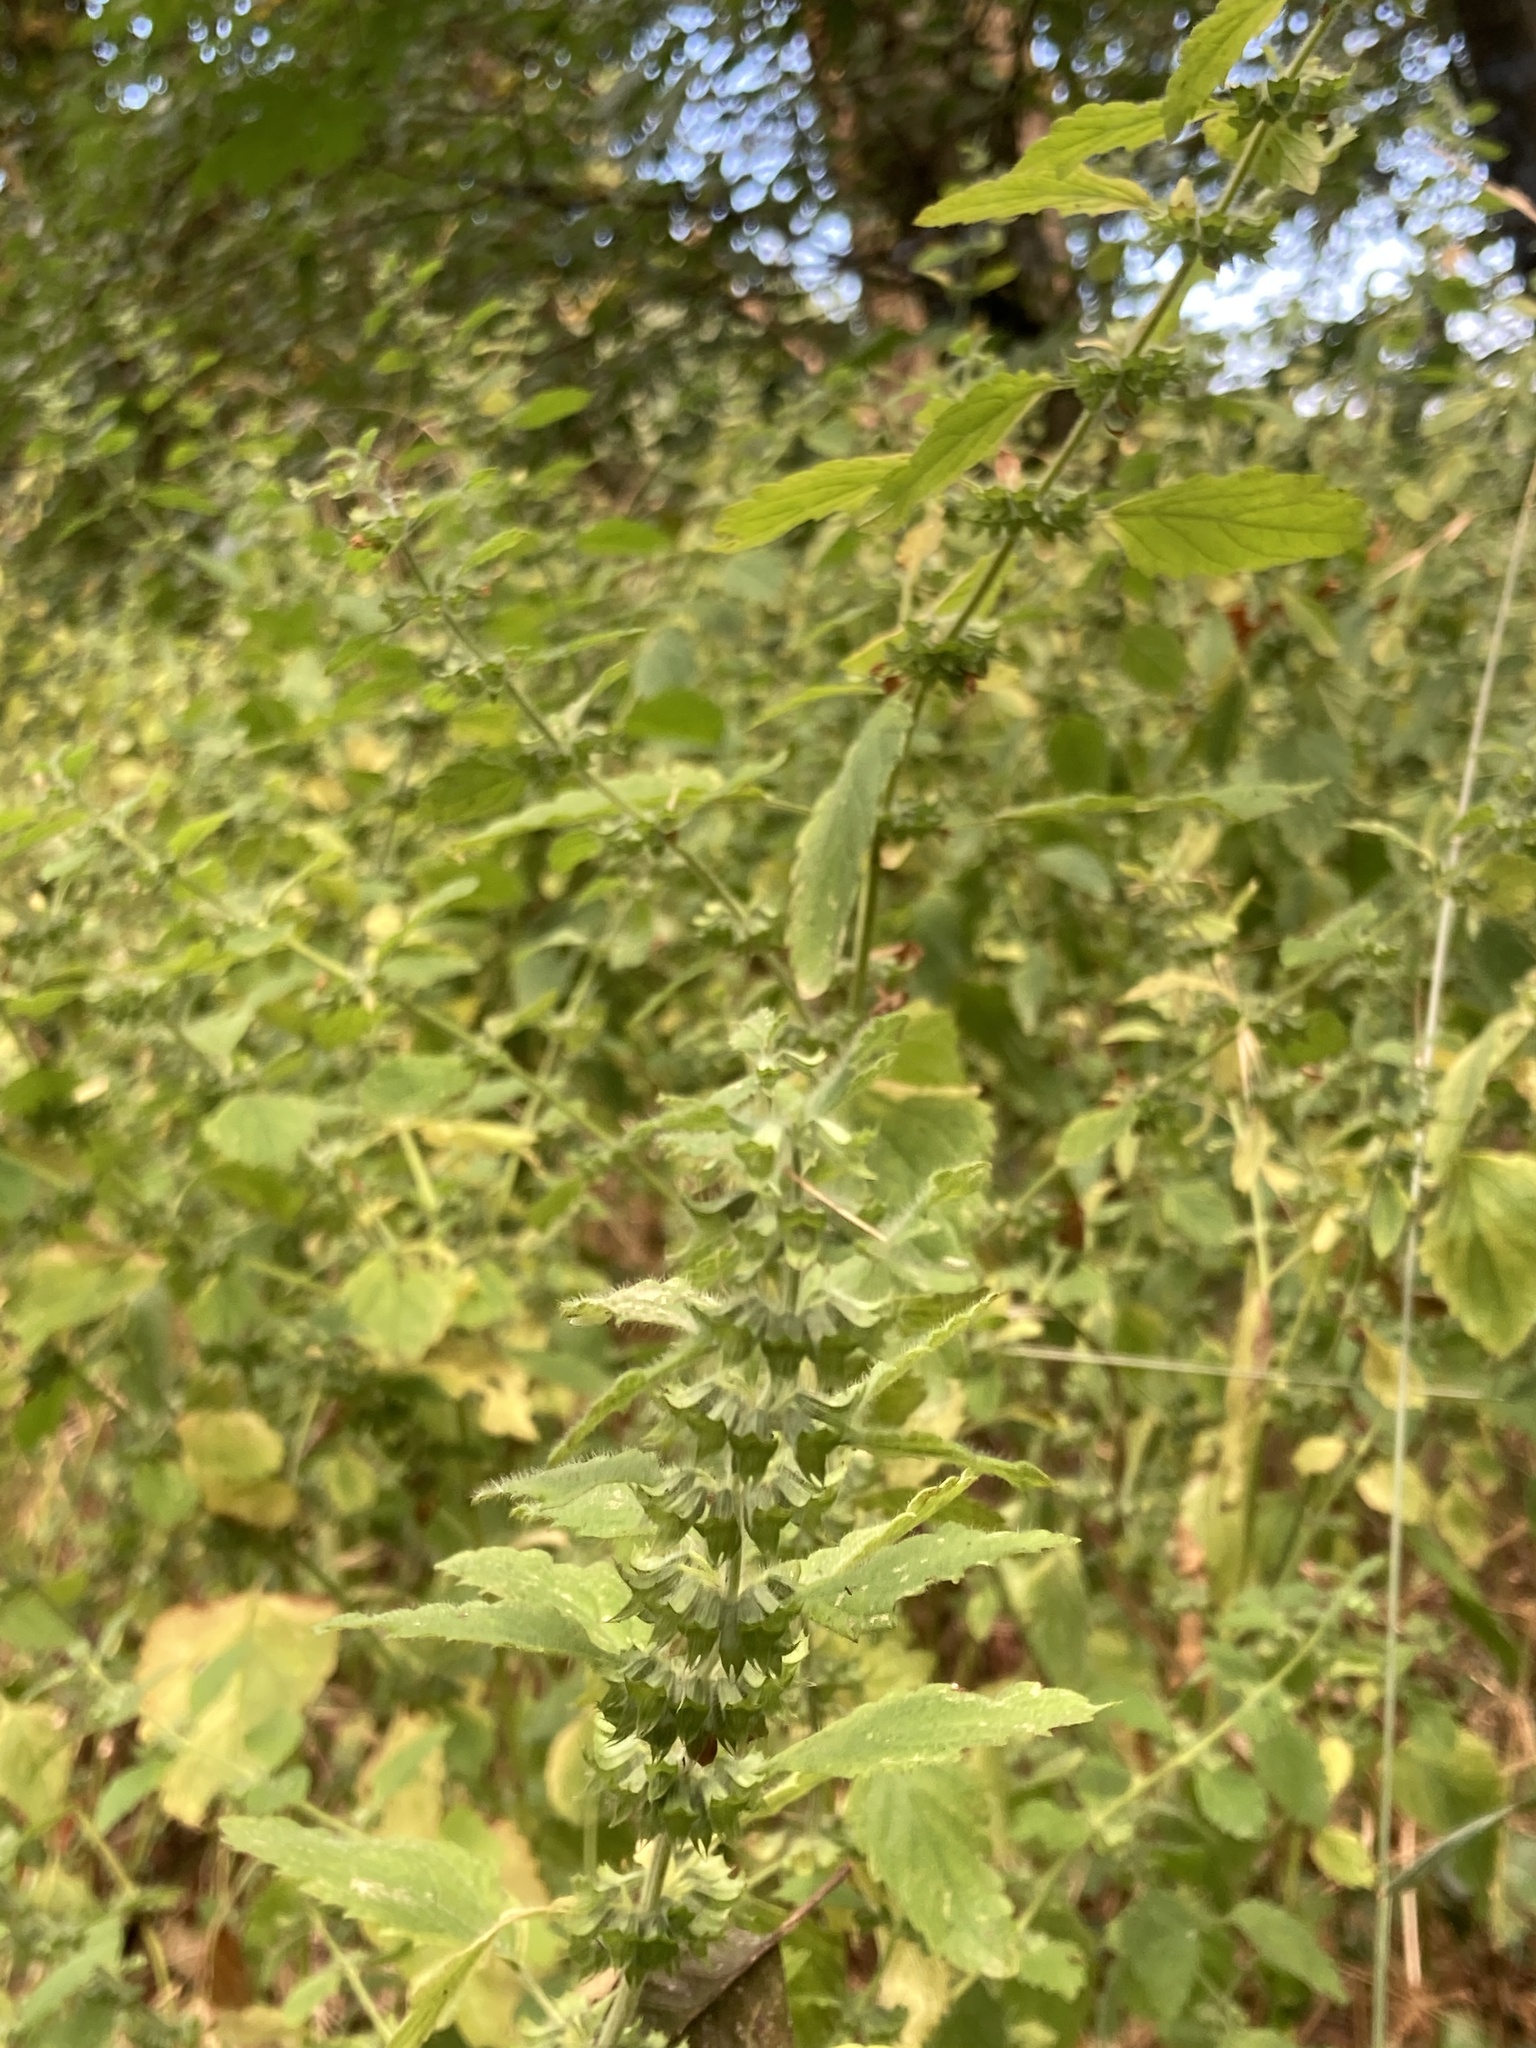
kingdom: Plantae
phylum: Tracheophyta
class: Magnoliopsida
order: Lamiales
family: Lamiaceae
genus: Melissa
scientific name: Melissa officinalis
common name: Balm
